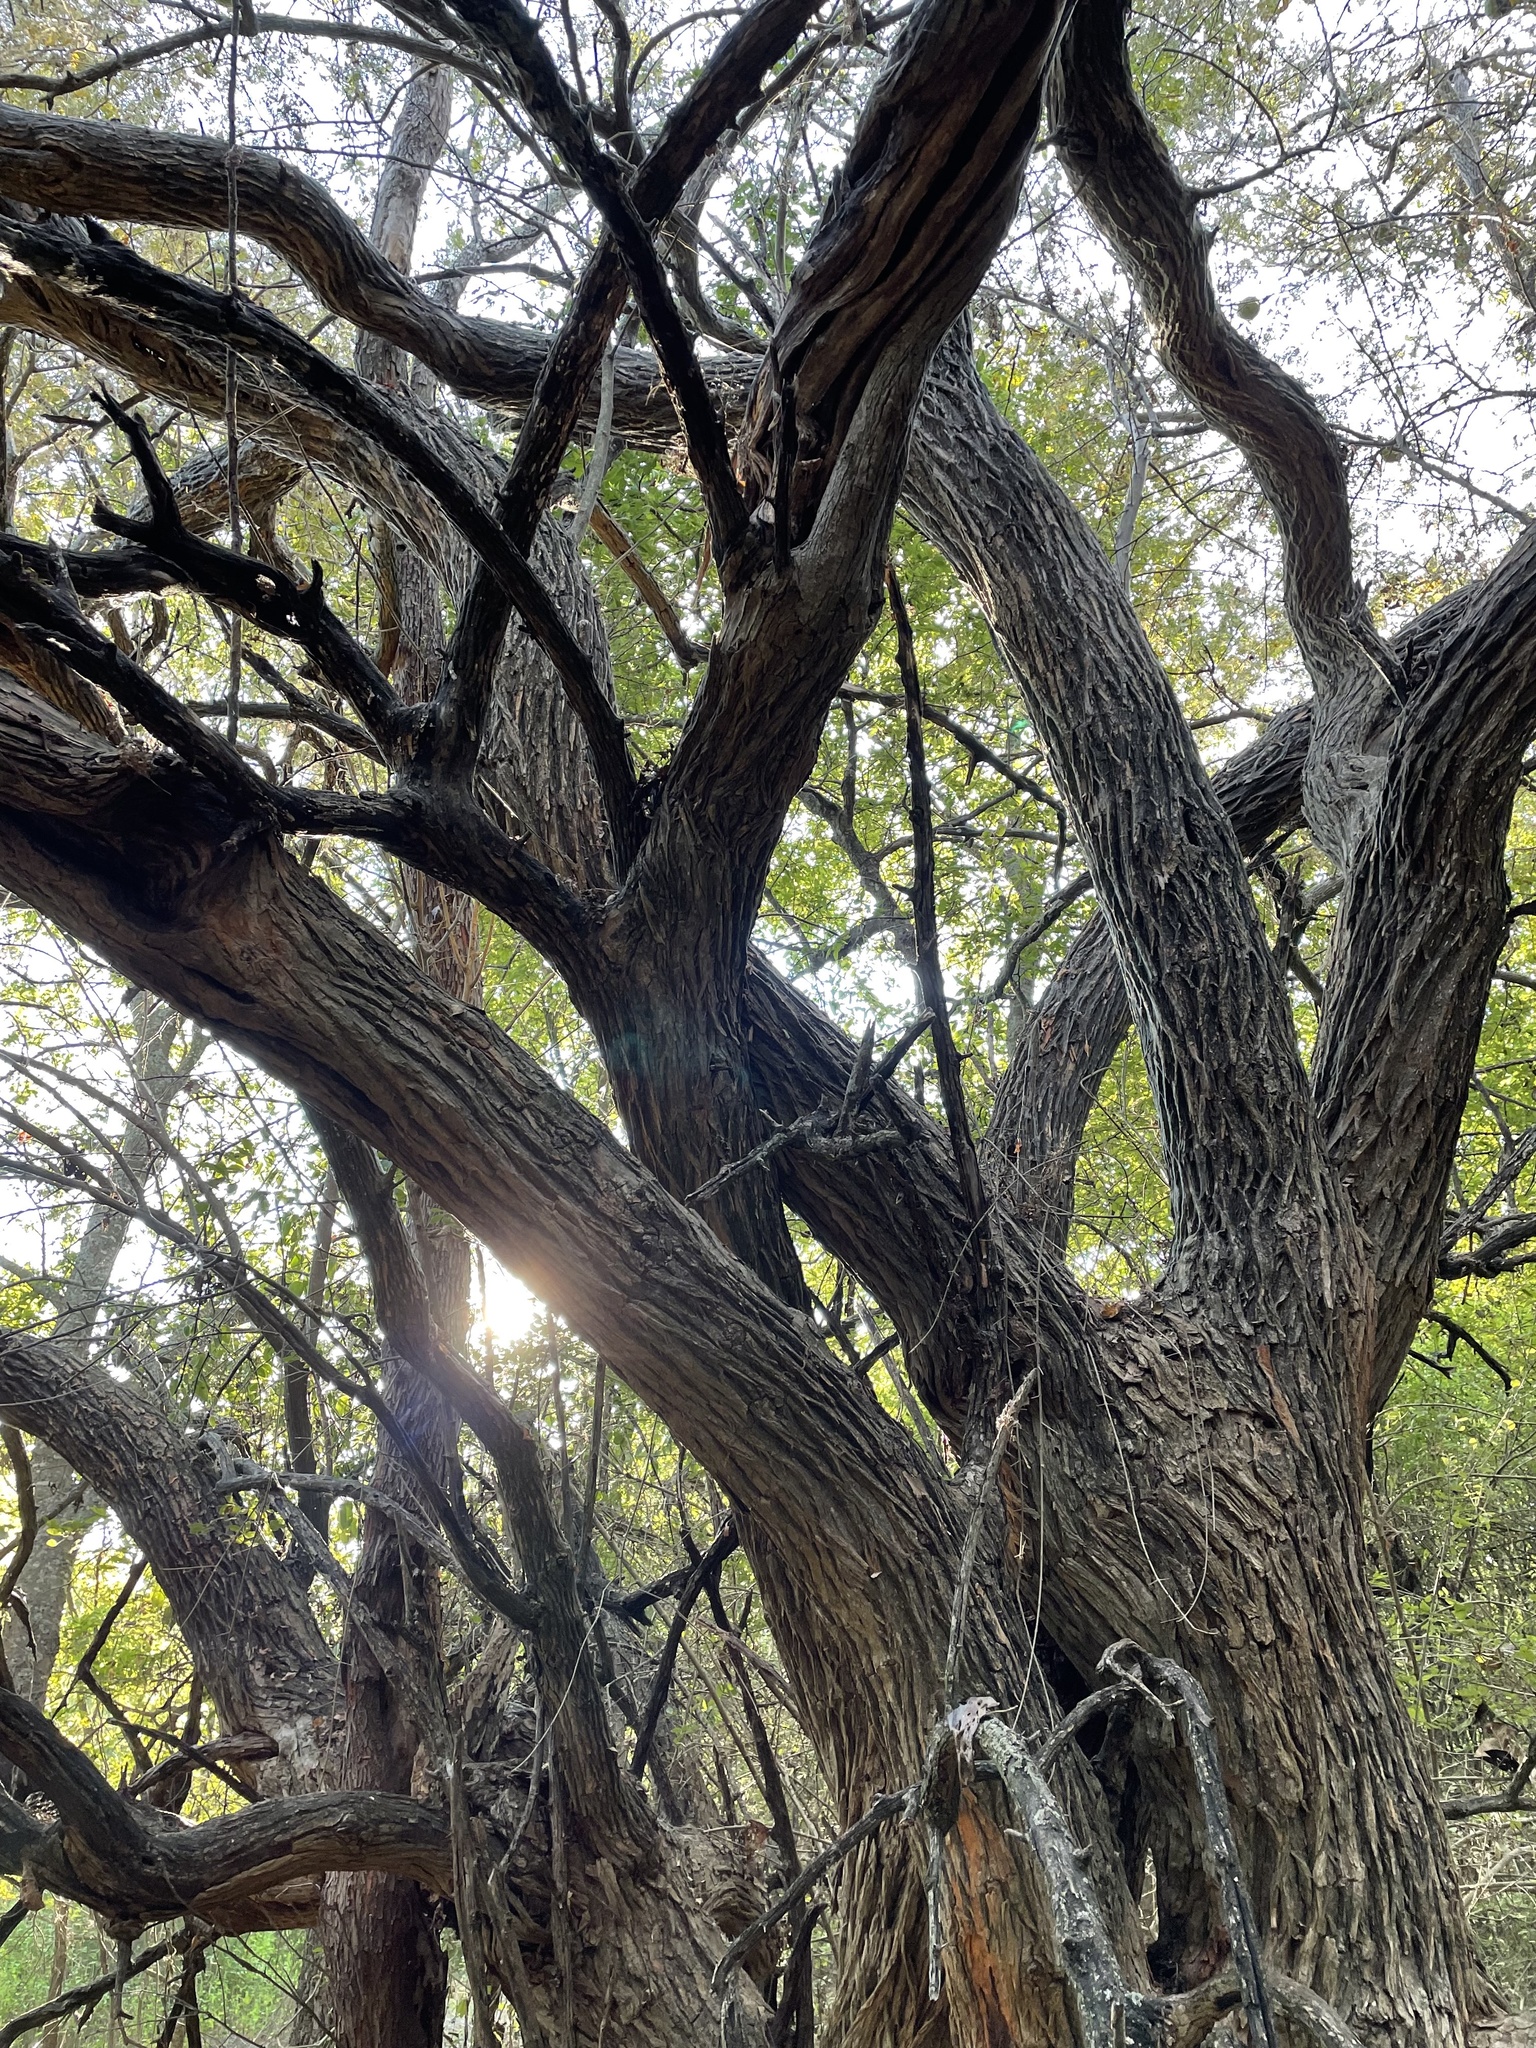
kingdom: Plantae
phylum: Tracheophyta
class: Magnoliopsida
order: Rosales
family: Moraceae
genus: Maclura
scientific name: Maclura pomifera
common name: Osage-orange
